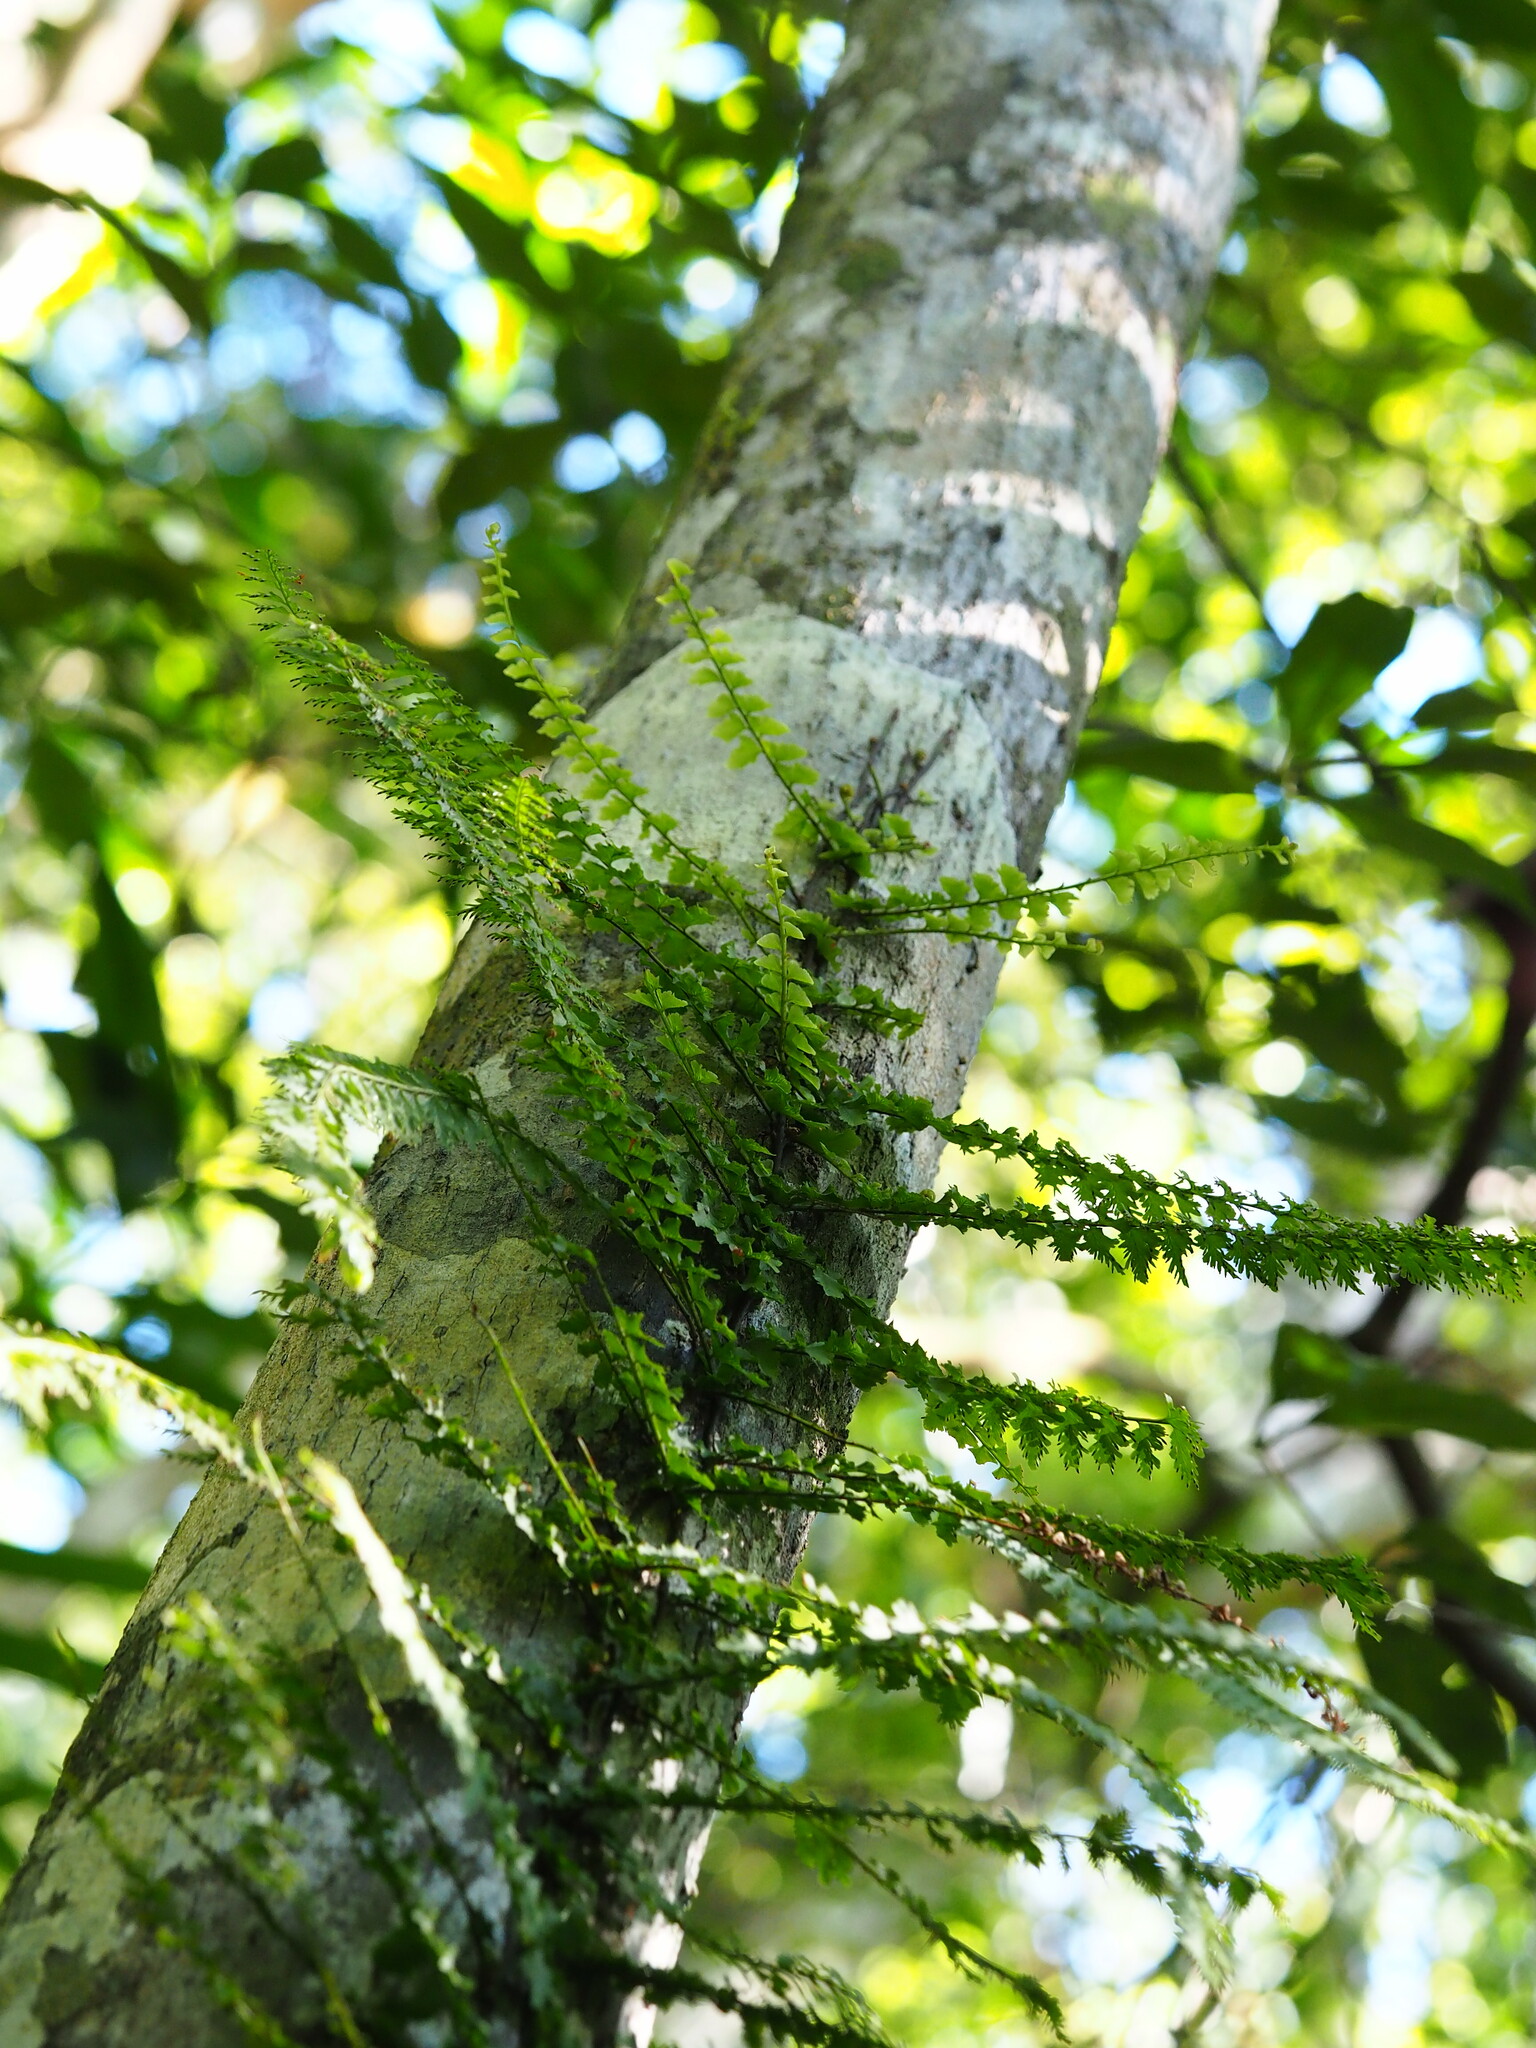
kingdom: Plantae
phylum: Tracheophyta
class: Polypodiopsida
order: Hymenophyllales
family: Hymenophyllaceae
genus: Vandenboschia
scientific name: Vandenboschia auriculata
